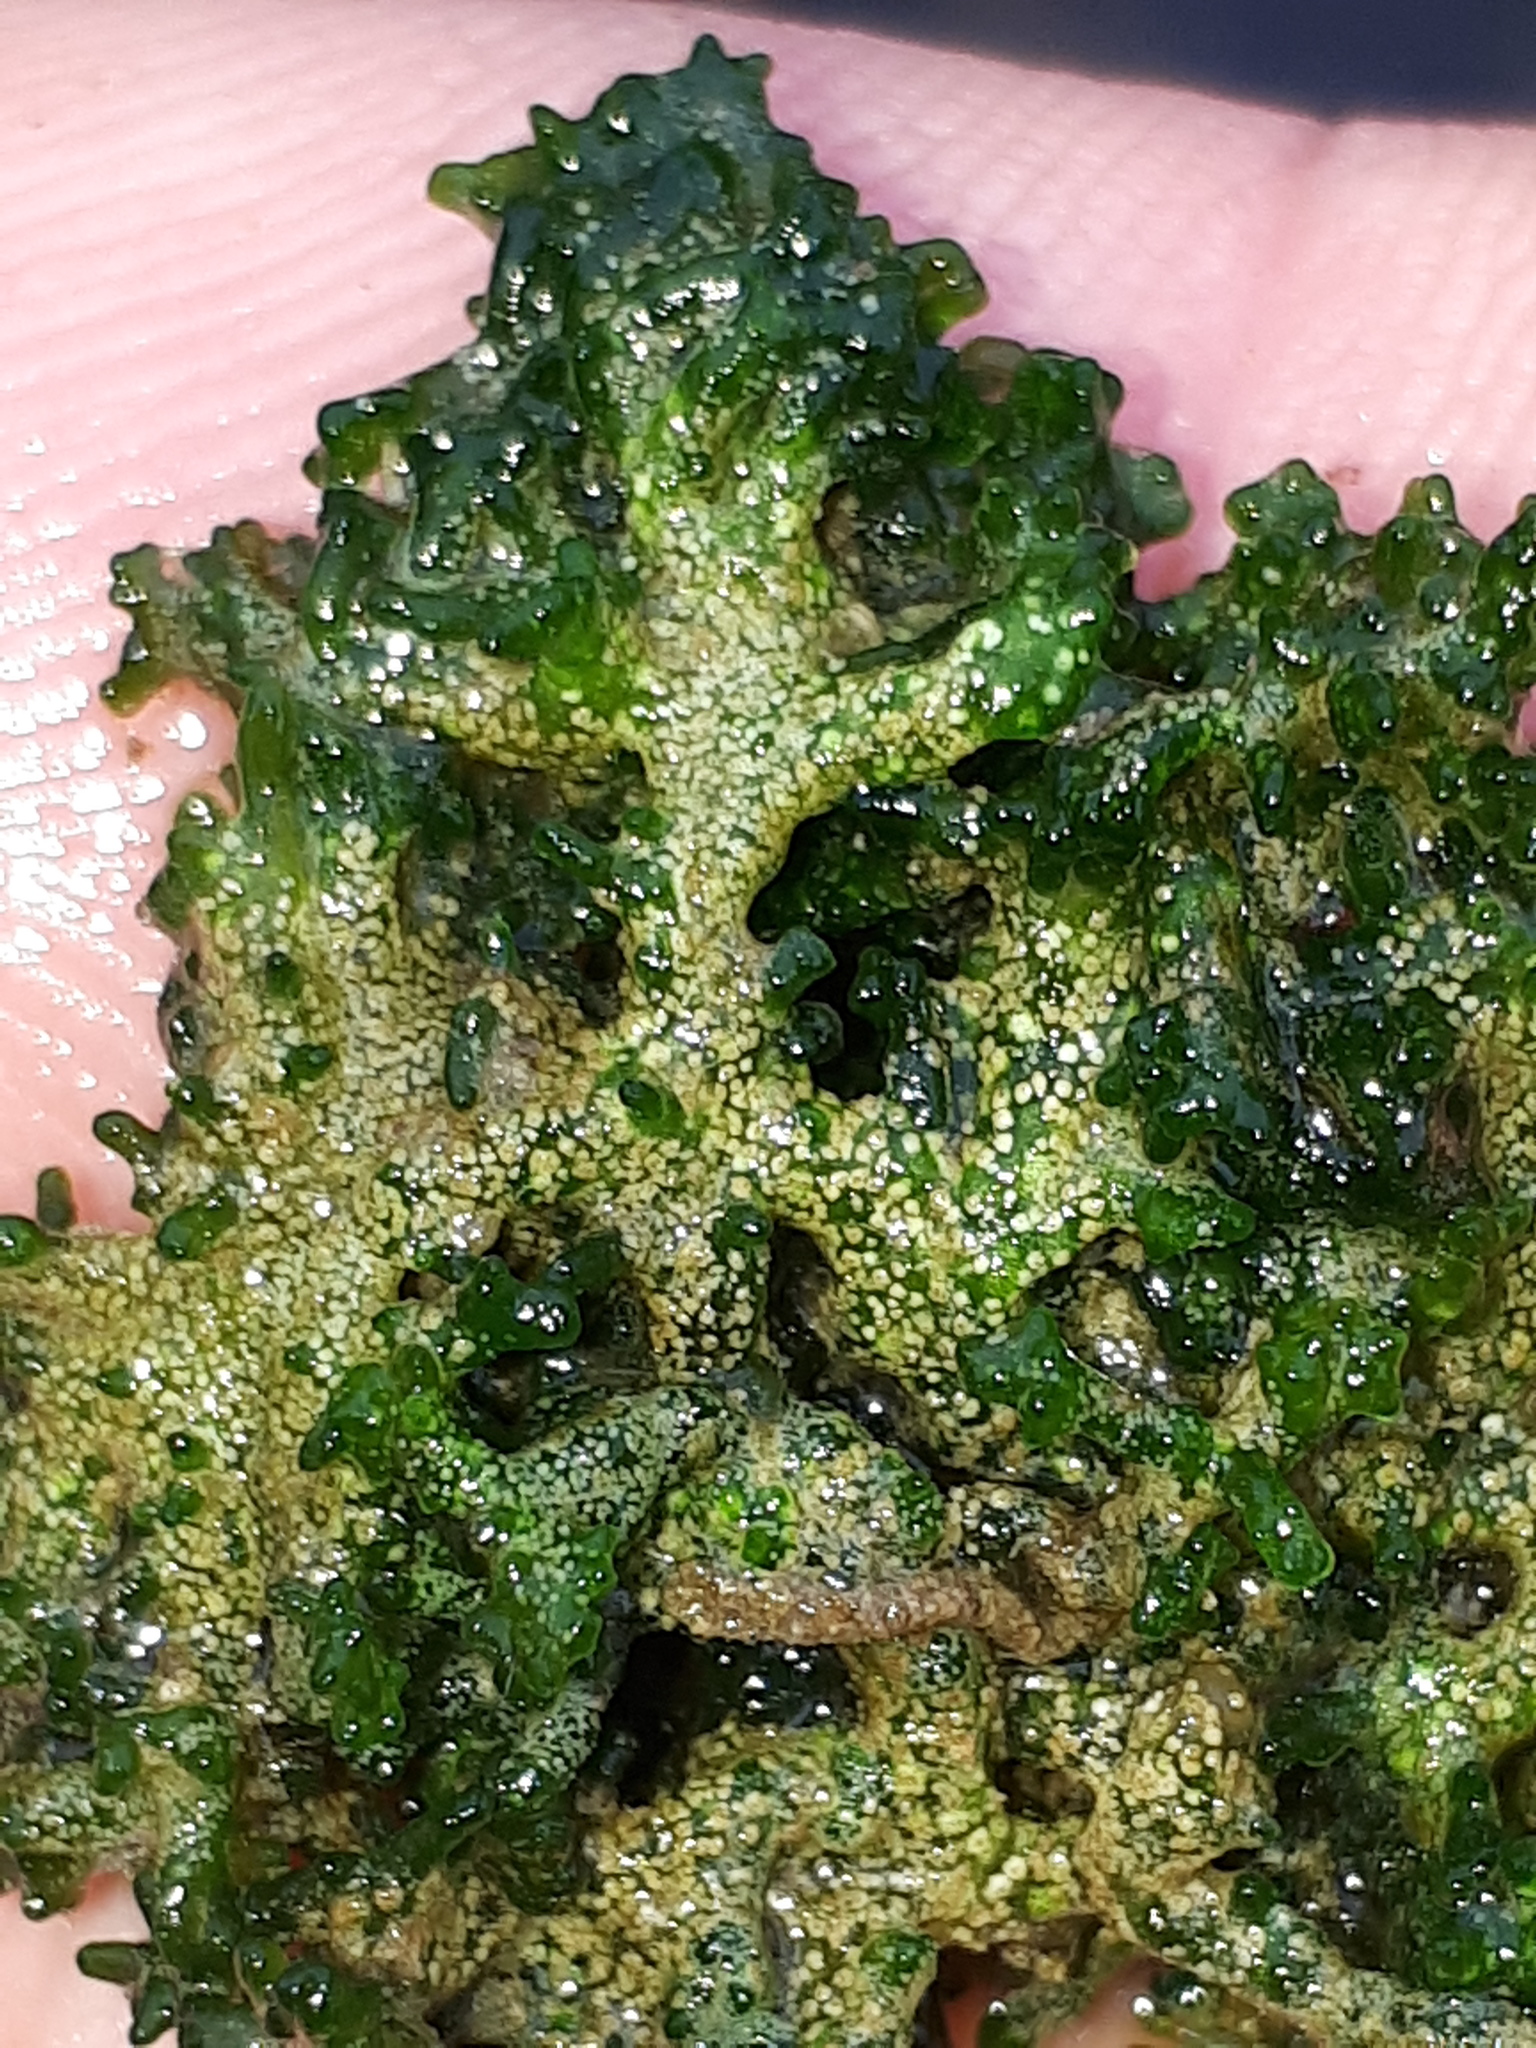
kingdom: Plantae
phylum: Chlorophyta
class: Chlorophyceae
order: Chaetophorales
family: Chaetophoraceae
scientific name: Chaetophoraceae
